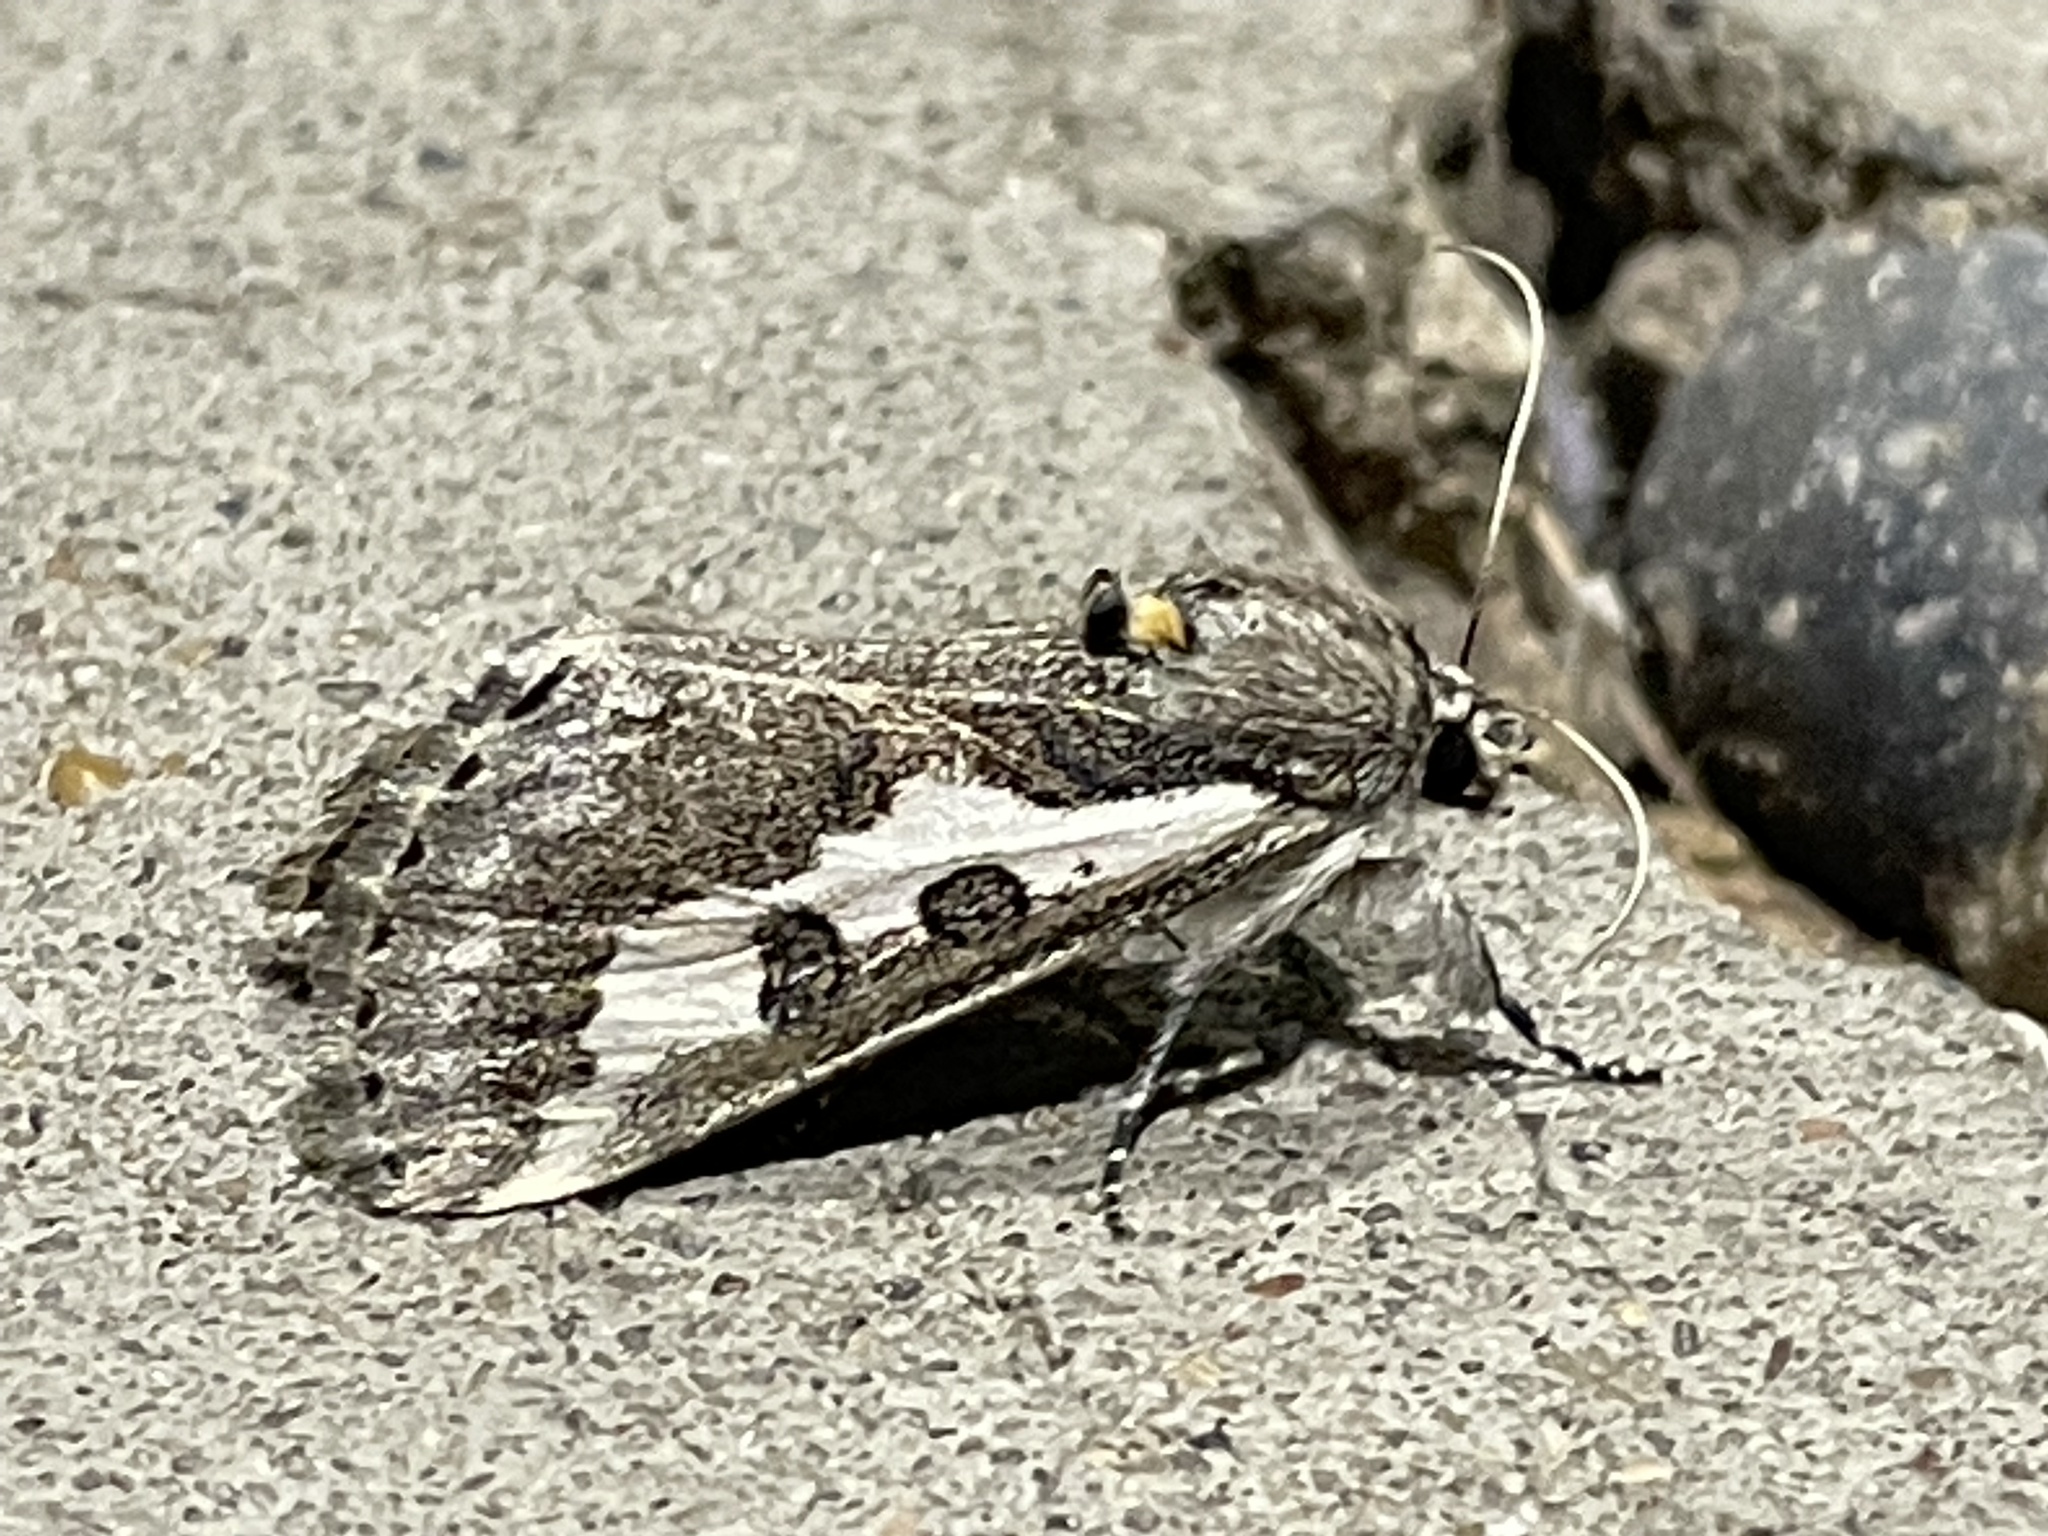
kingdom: Animalia
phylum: Arthropoda
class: Insecta
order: Lepidoptera
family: Noctuidae
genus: Euscirrhopterus
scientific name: Euscirrhopterus gloveri
